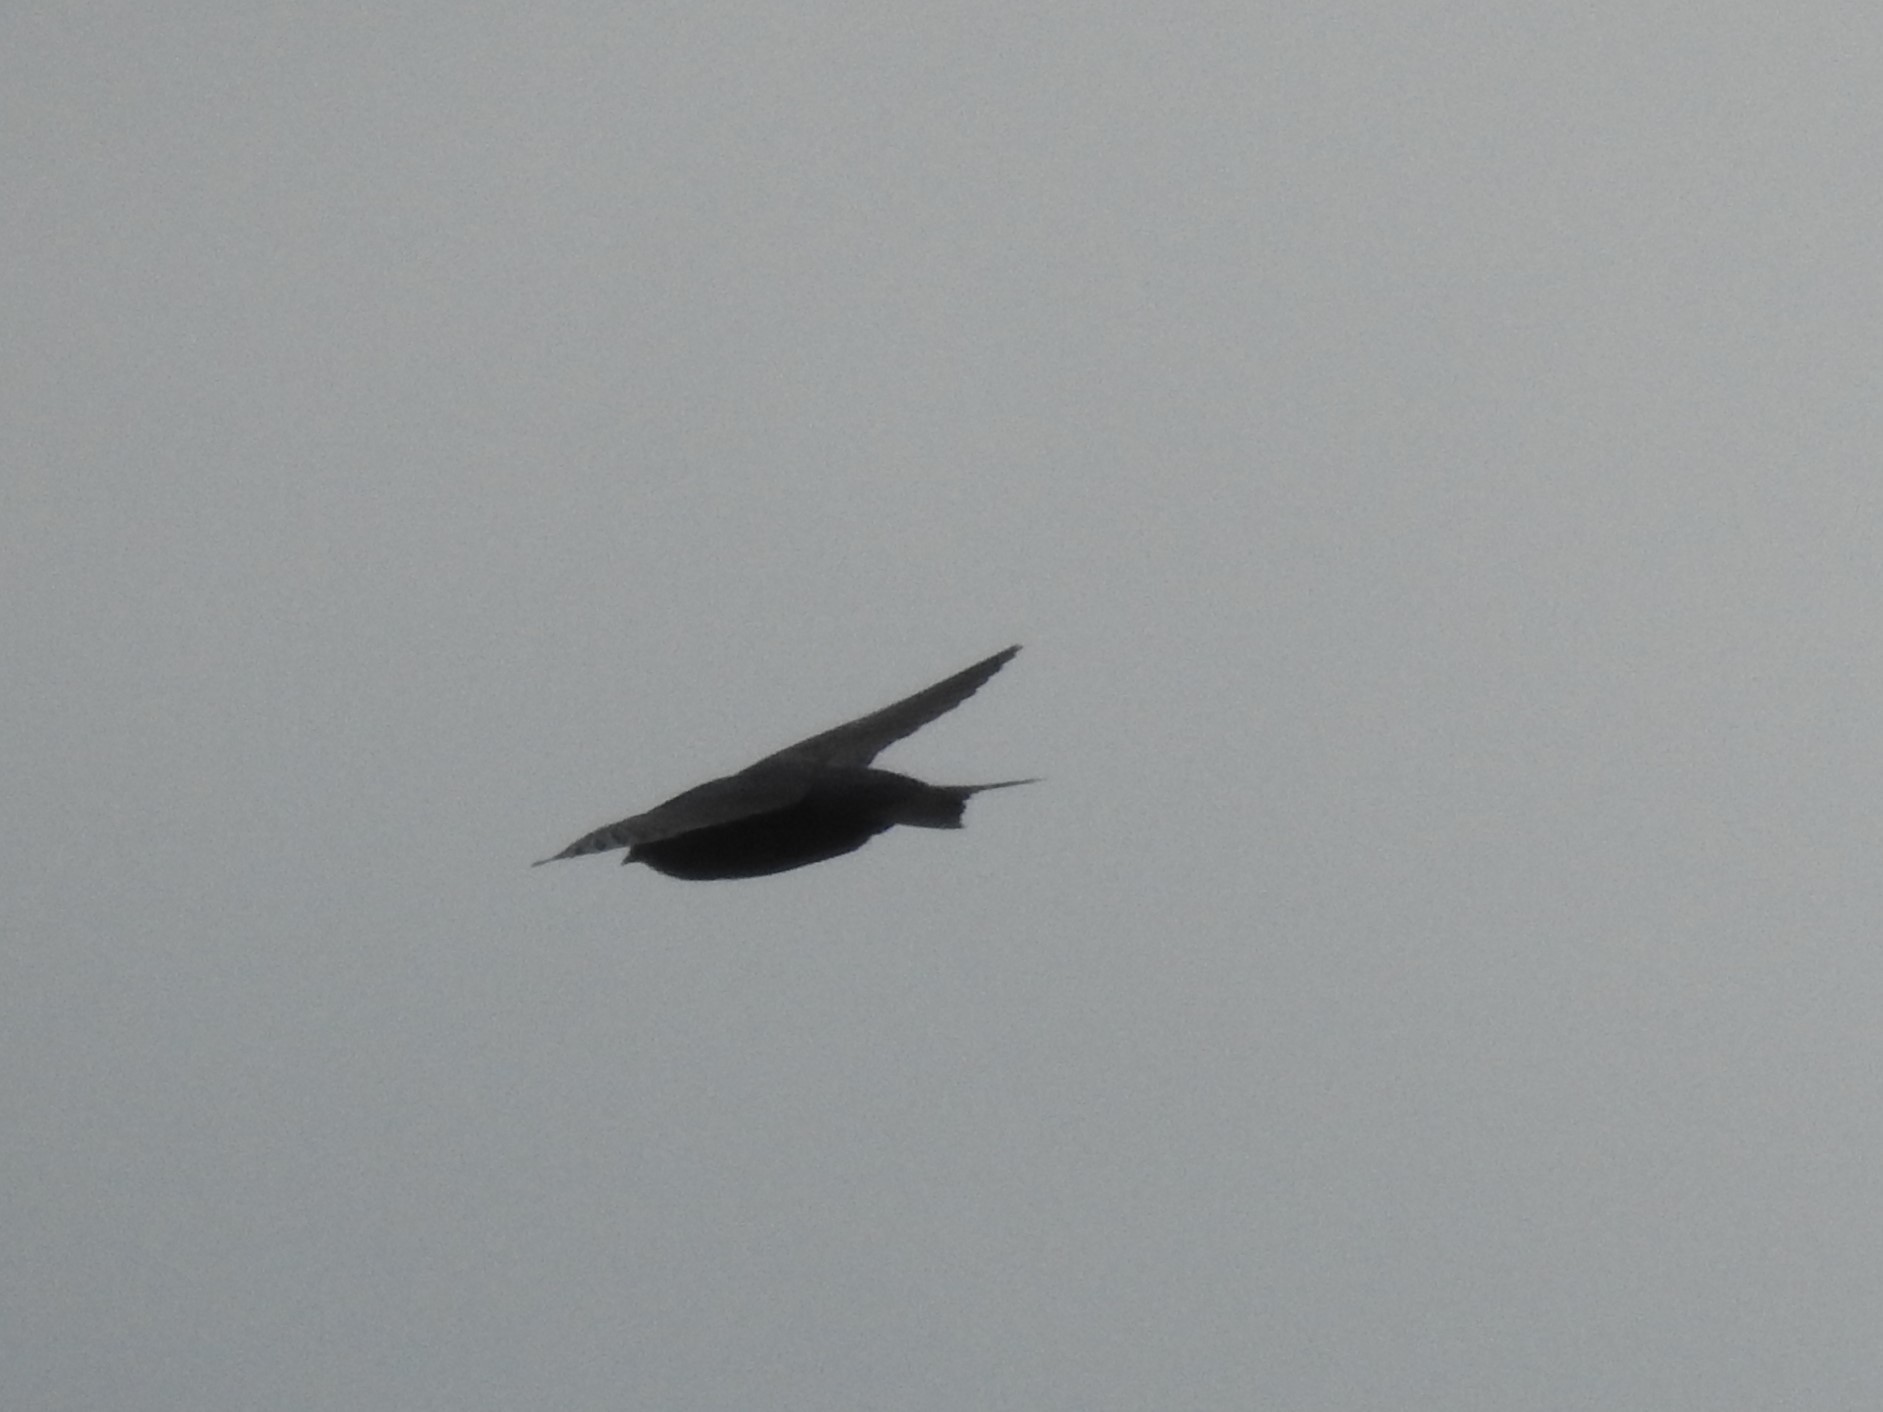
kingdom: Animalia
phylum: Chordata
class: Aves
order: Passeriformes
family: Hirundinidae
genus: Progne
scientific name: Progne subis
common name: Purple martin
